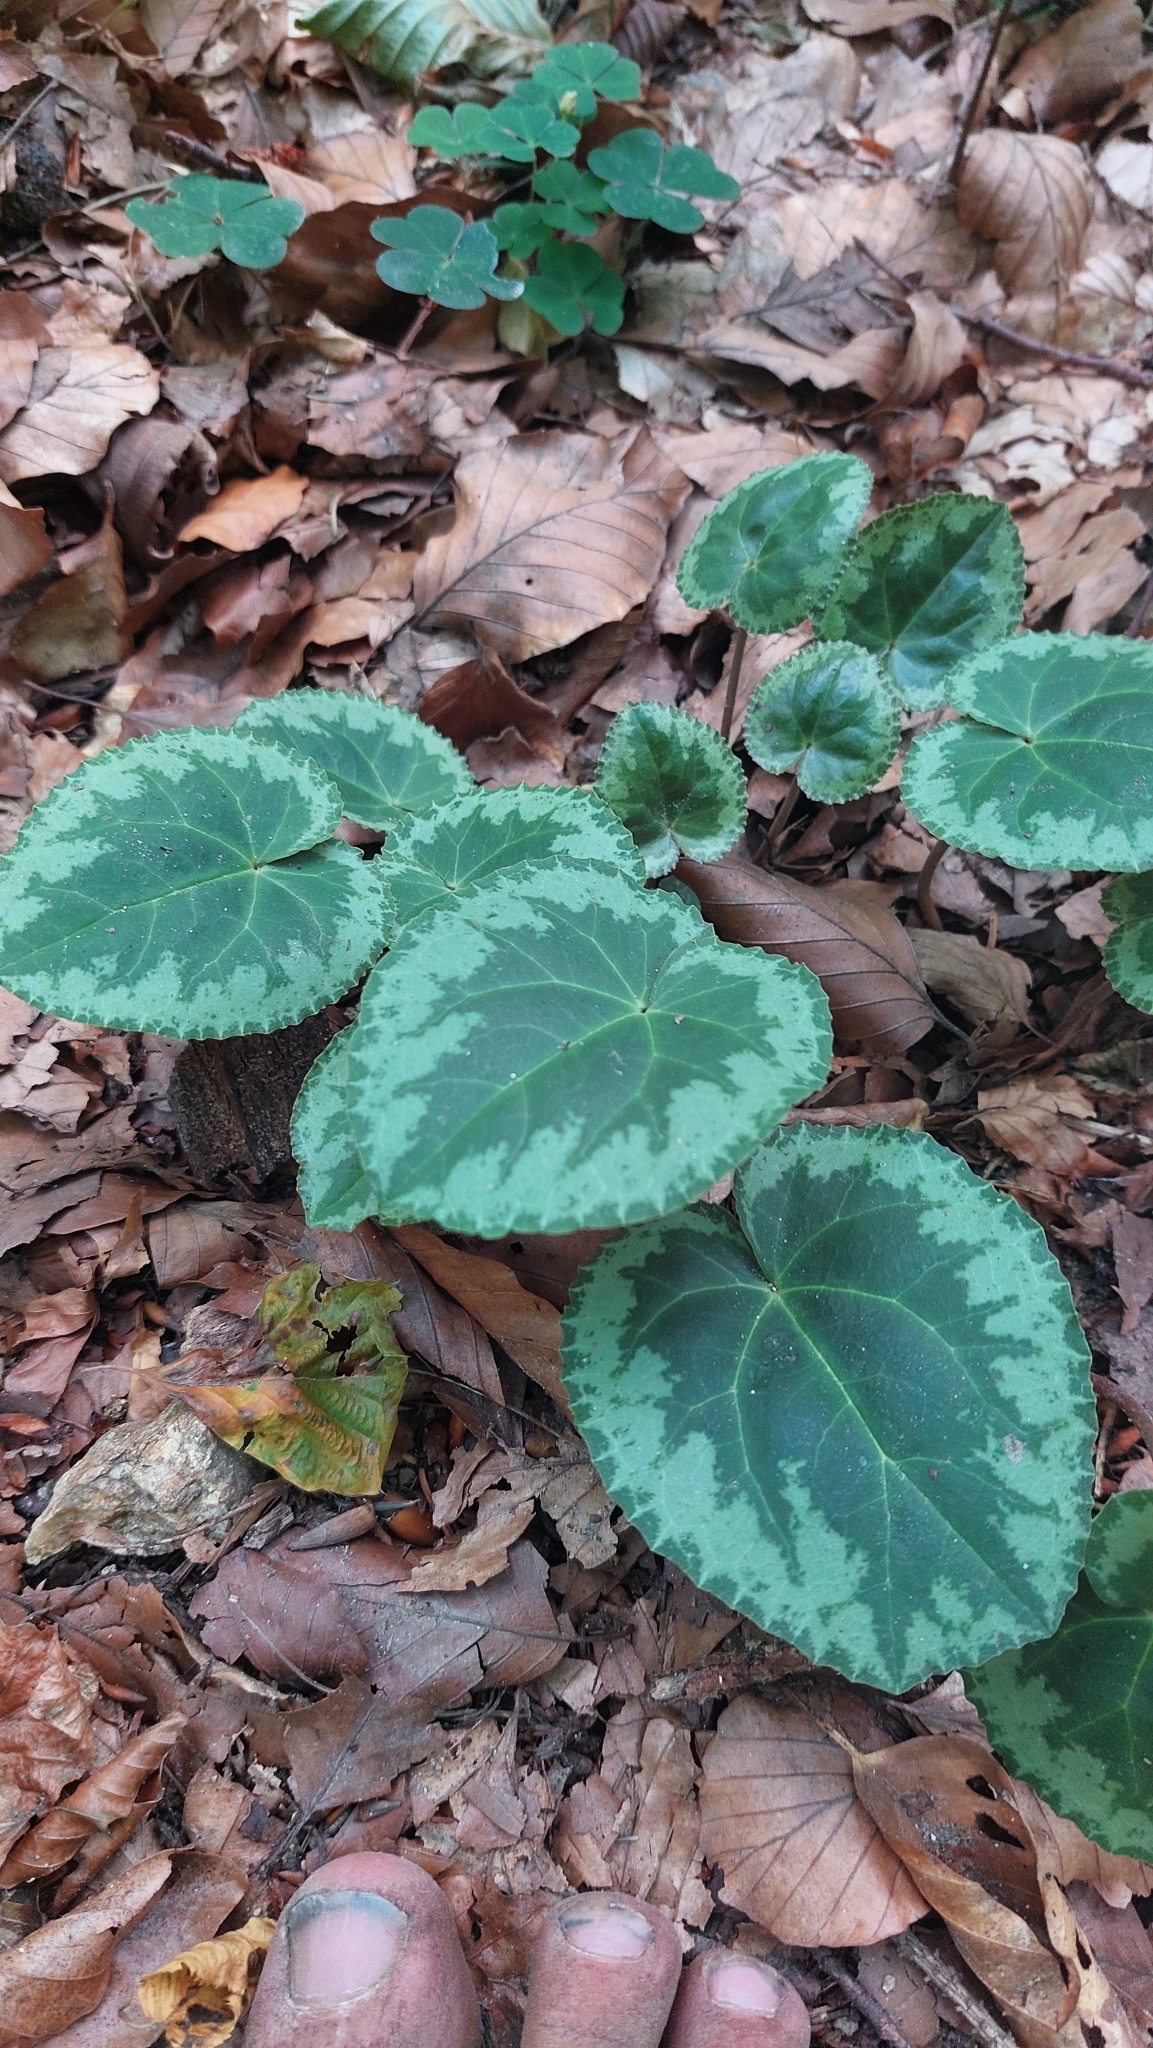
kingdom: Plantae
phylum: Tracheophyta
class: Magnoliopsida
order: Ericales
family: Primulaceae
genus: Cyclamen
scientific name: Cyclamen purpurascens
